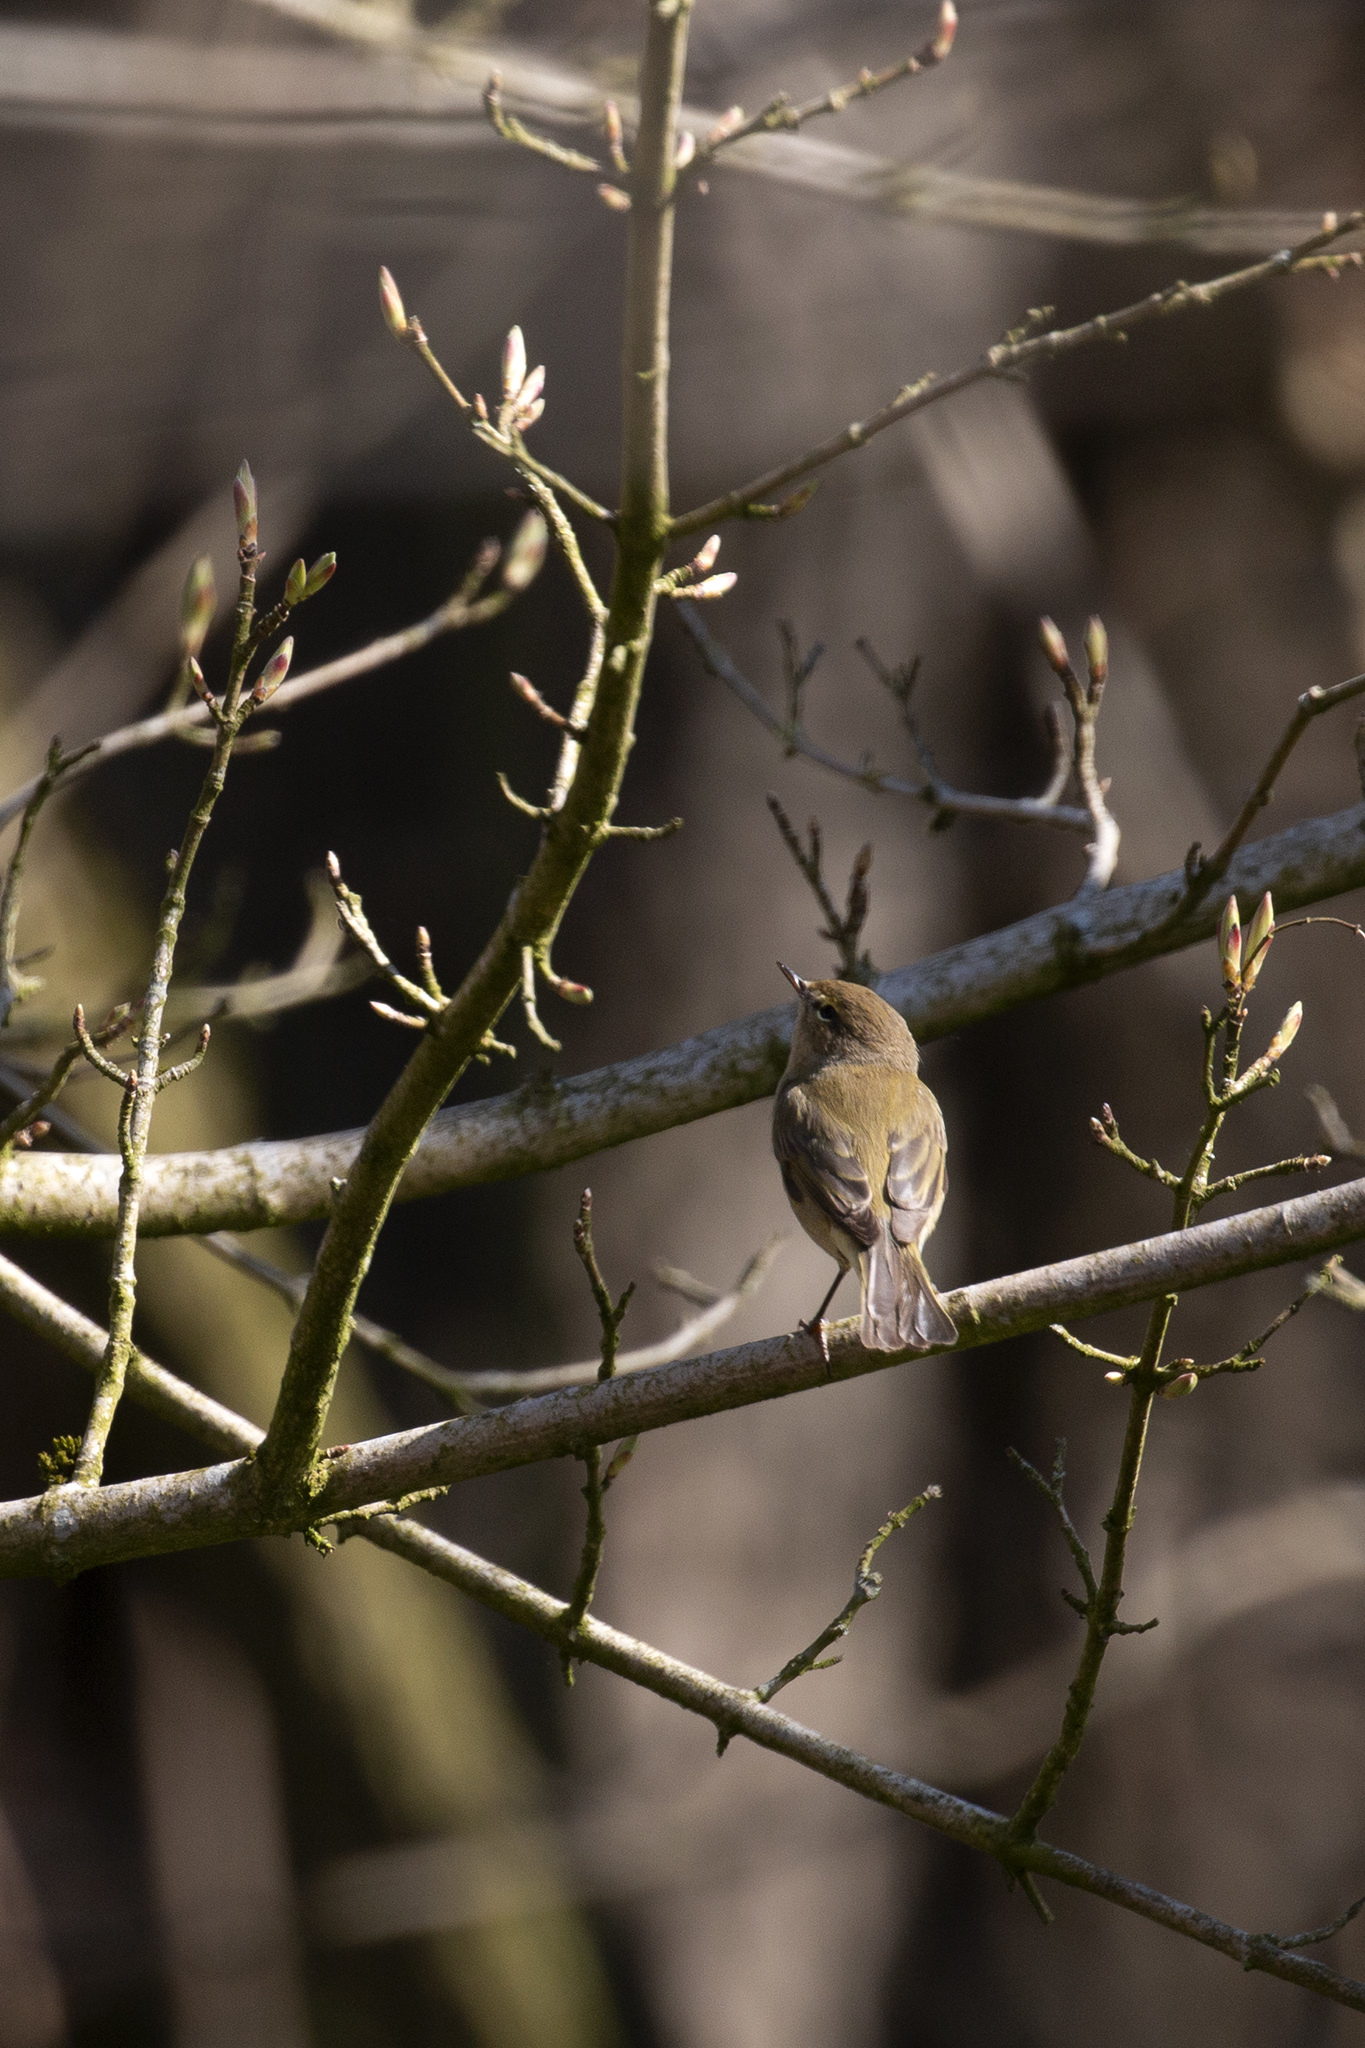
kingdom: Animalia
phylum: Chordata
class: Aves
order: Passeriformes
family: Phylloscopidae
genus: Phylloscopus
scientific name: Phylloscopus collybita
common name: Common chiffchaff
